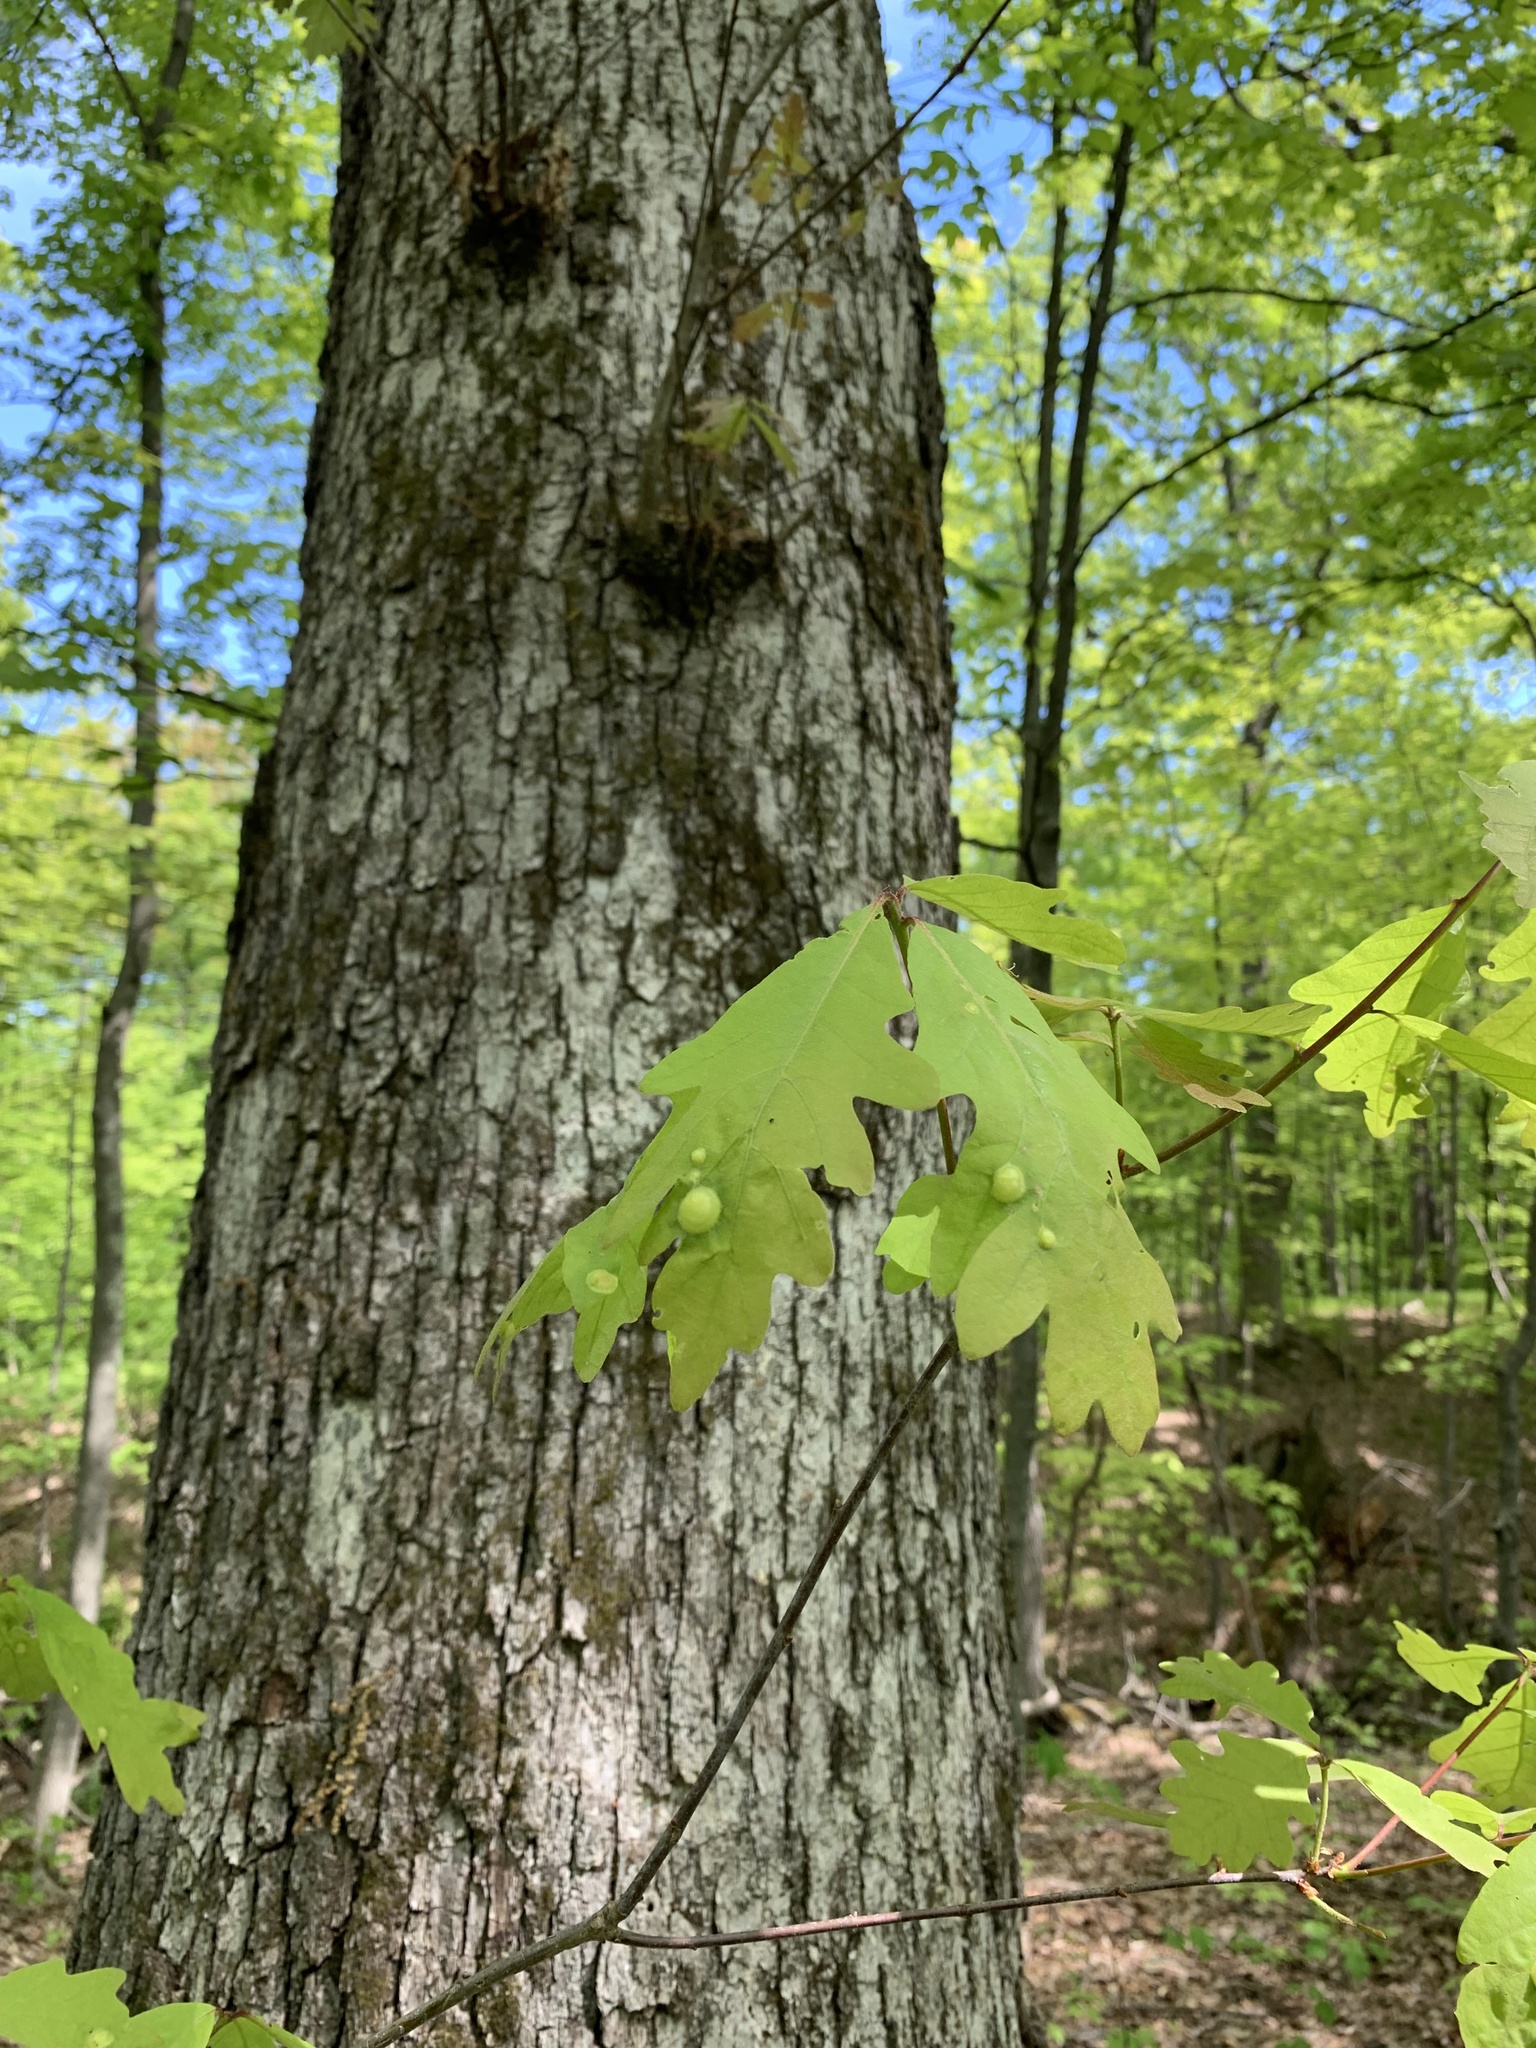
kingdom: Animalia
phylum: Arthropoda
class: Insecta
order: Hymenoptera
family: Cynipidae
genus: Callirhytis
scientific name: Callirhytis
